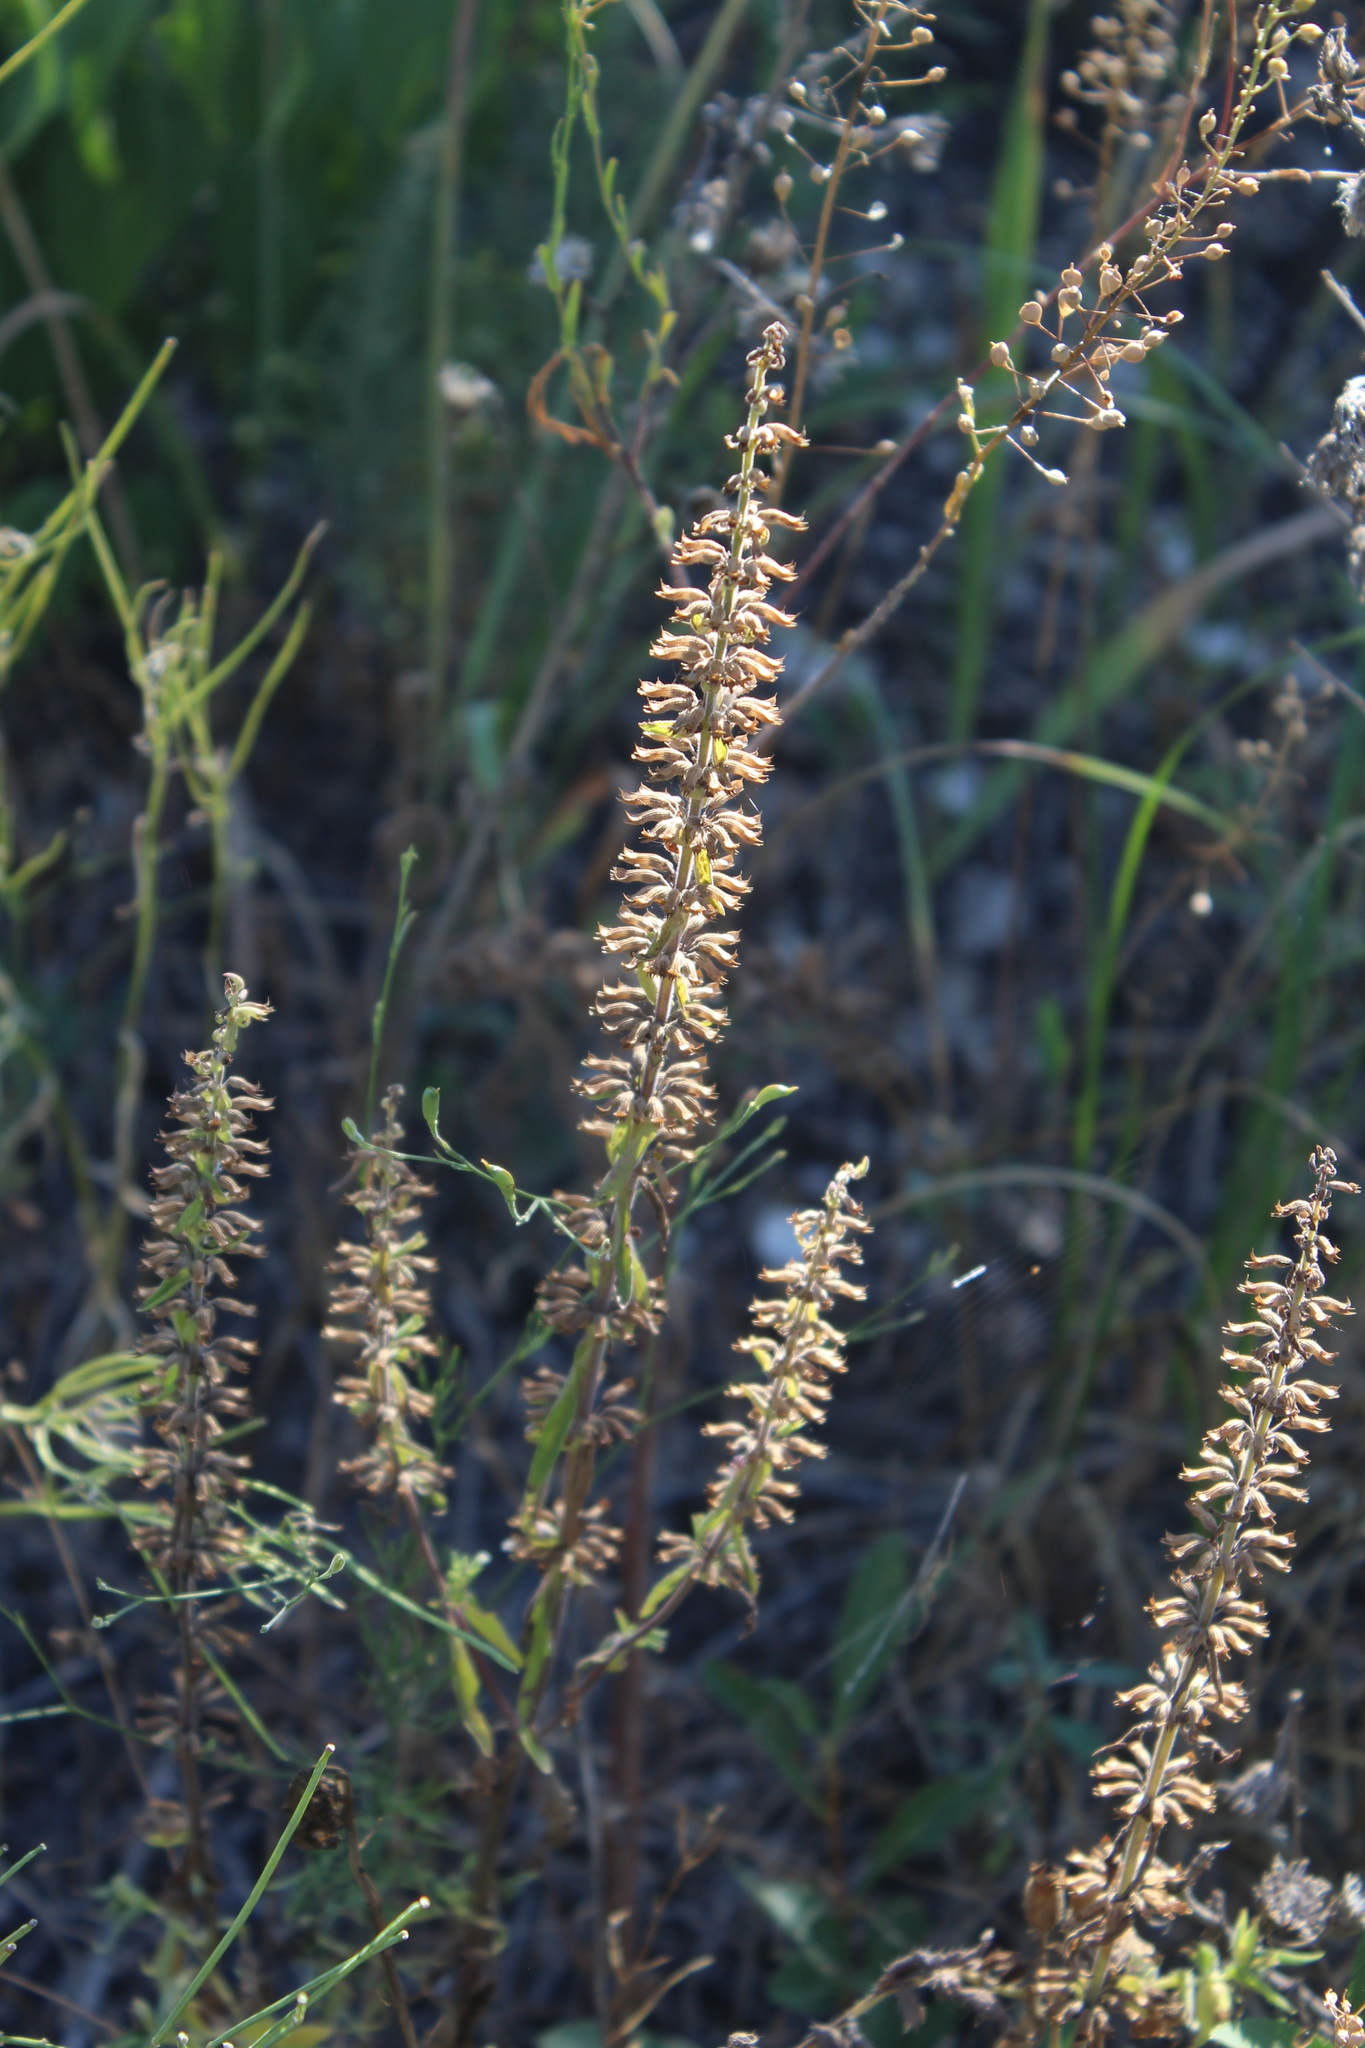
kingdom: Plantae
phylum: Tracheophyta
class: Magnoliopsida
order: Lamiales
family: Lamiaceae
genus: Dracocephalum
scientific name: Dracocephalum thymiflorum
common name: Thymeleaf dragonhead
